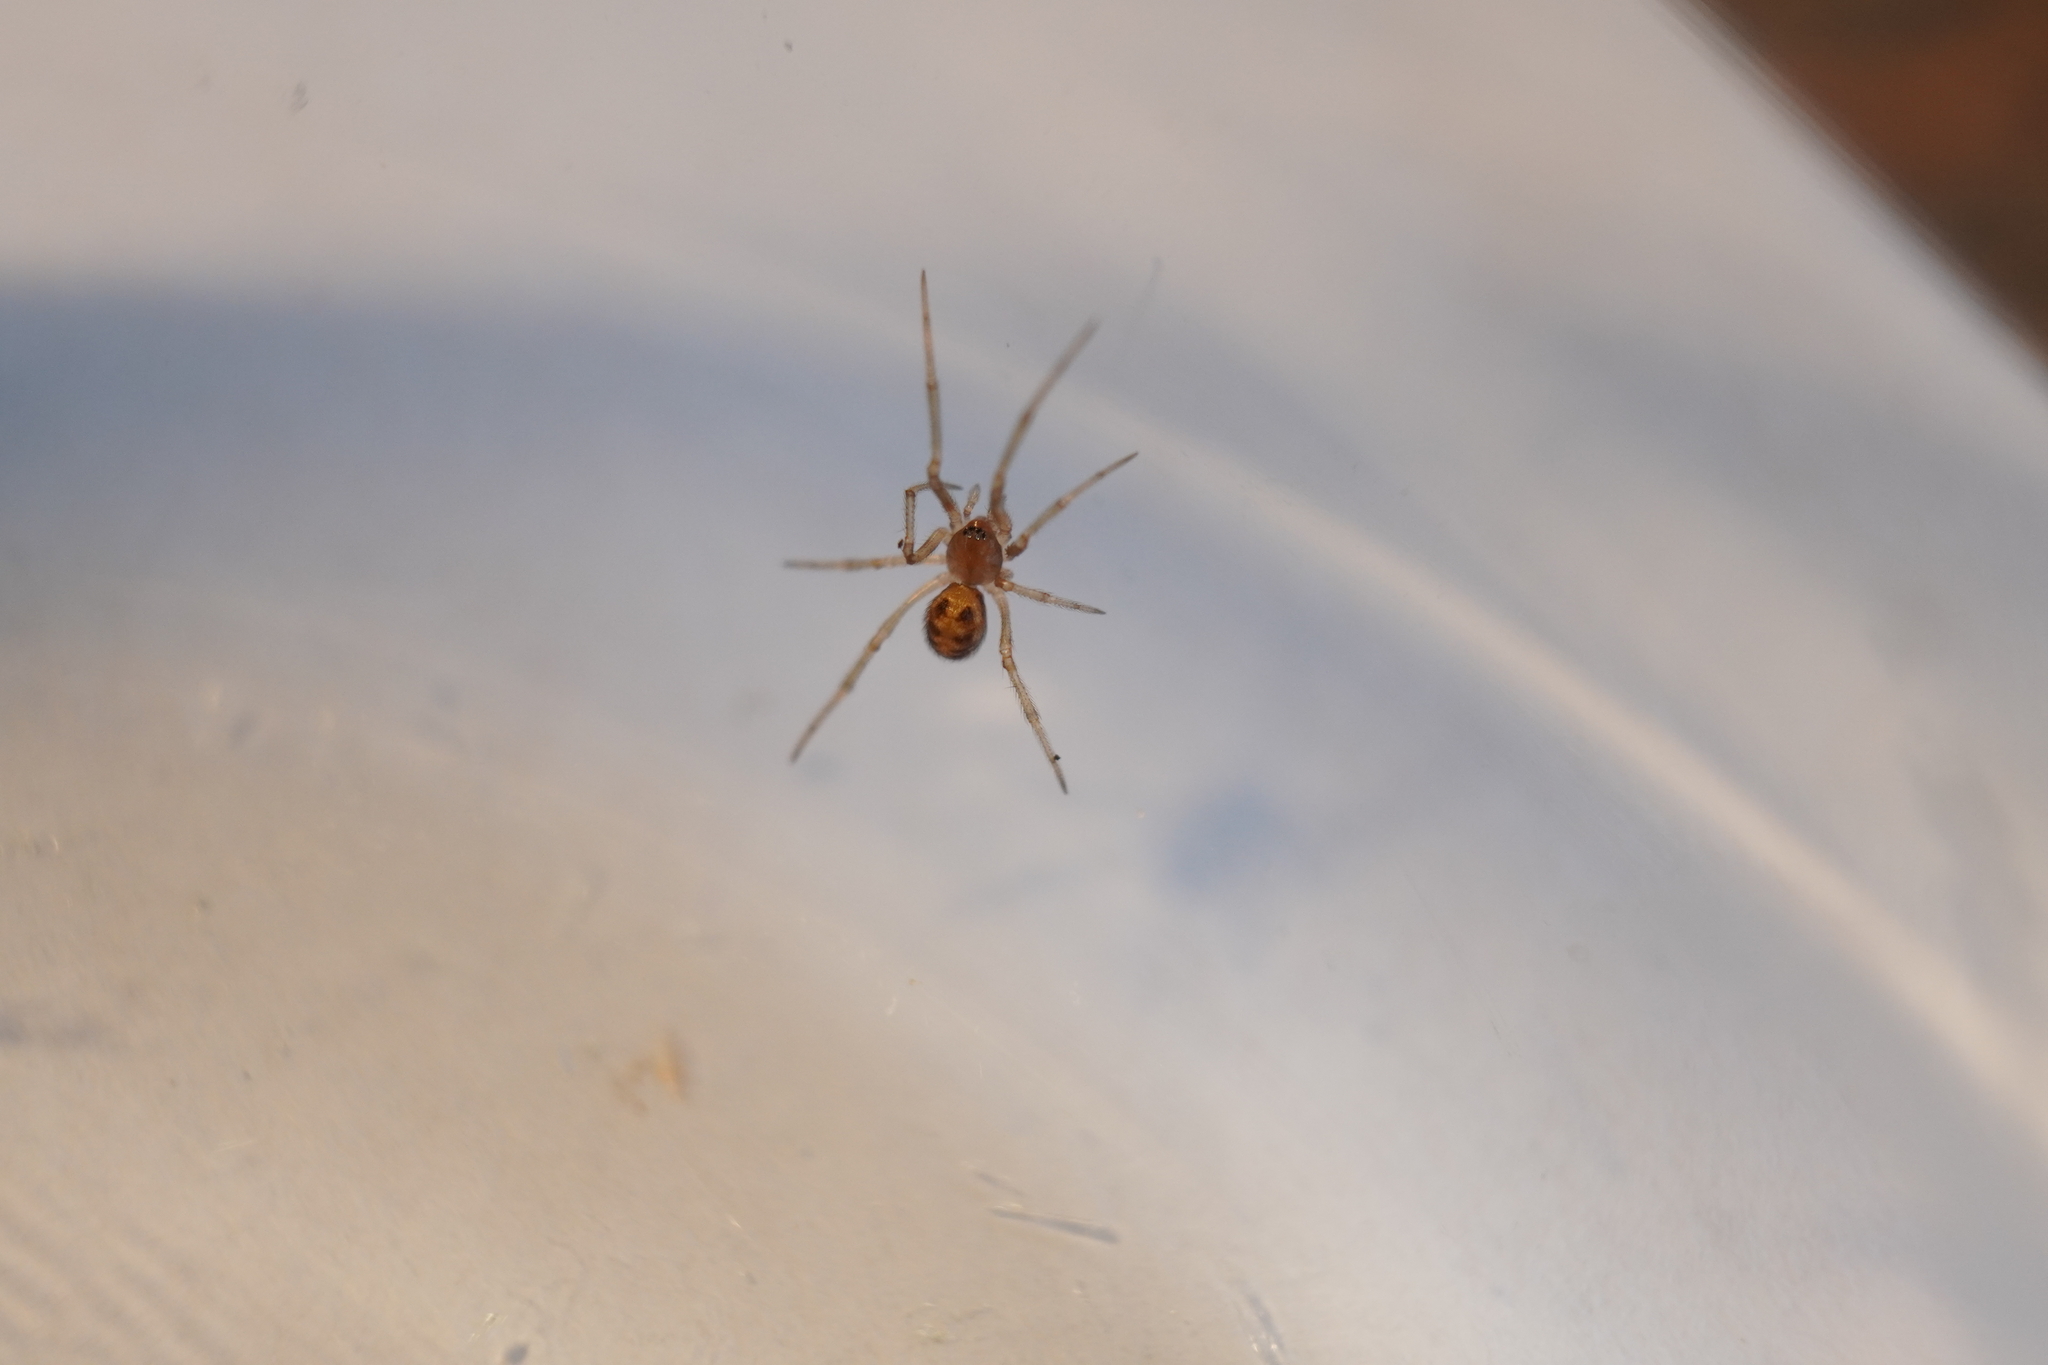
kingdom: Animalia
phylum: Arthropoda
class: Arachnida
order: Araneae
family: Theridiidae
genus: Steatoda
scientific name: Steatoda triangulosa
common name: Triangulate bud spider
